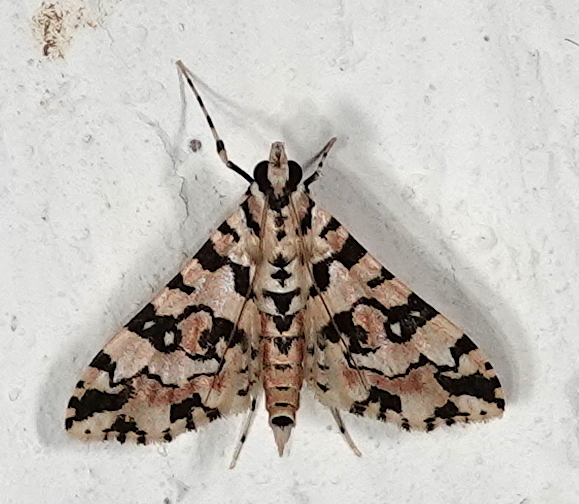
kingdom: Animalia
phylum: Arthropoda
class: Insecta
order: Lepidoptera
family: Crambidae
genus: Conchylodes
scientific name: Conchylodes bryophilalis
